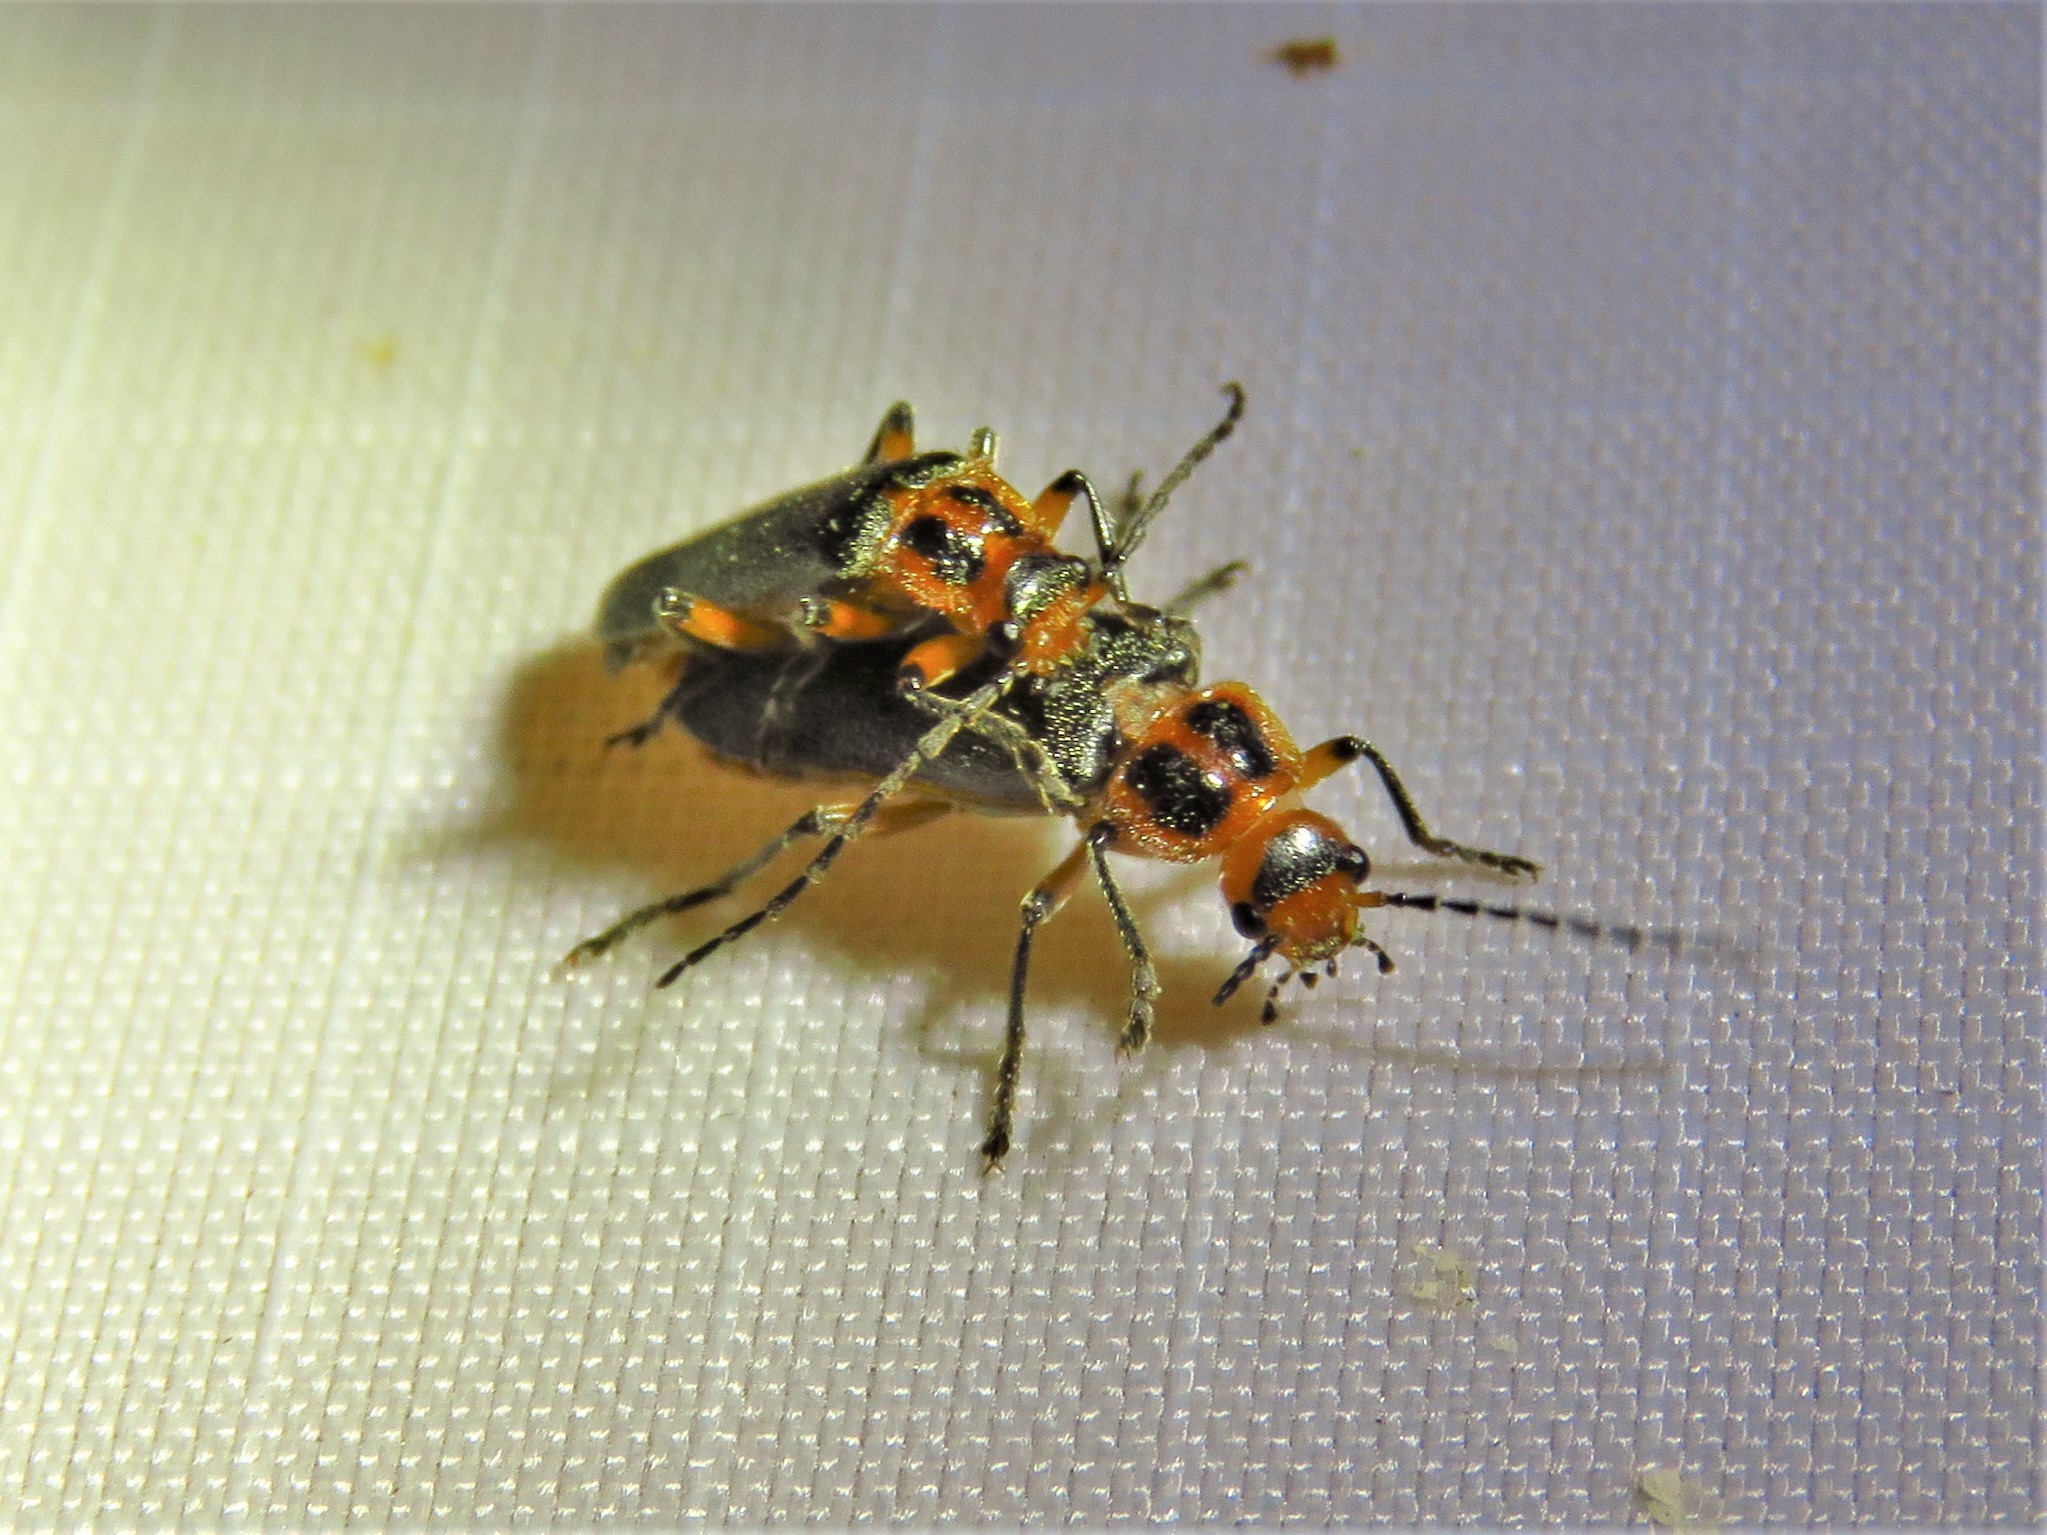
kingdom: Animalia
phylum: Arthropoda
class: Insecta
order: Coleoptera
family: Cantharidae
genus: Atalantycha
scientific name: Atalantycha bilineata
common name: Two-lined leatherwing
